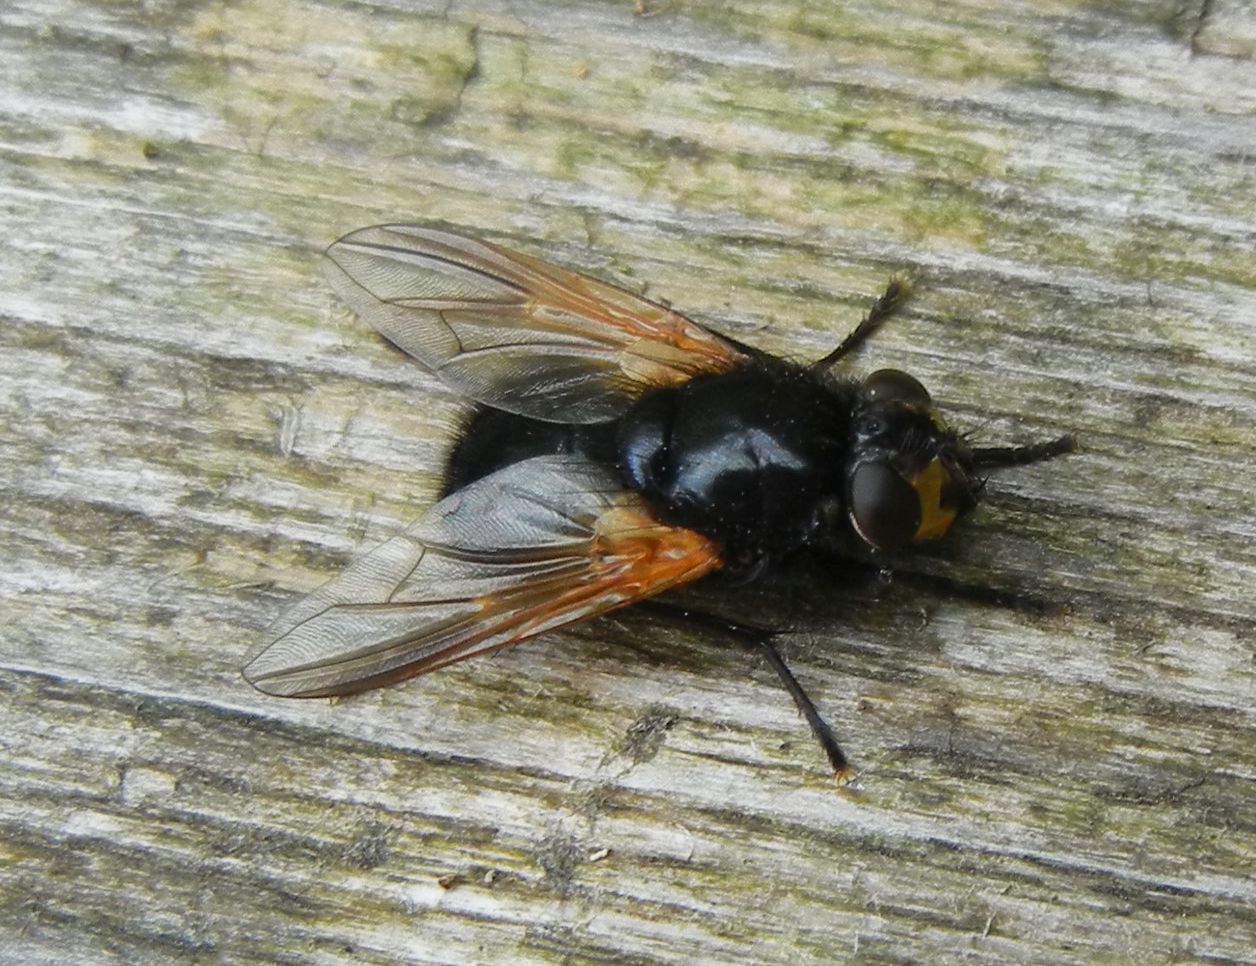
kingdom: Animalia
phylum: Arthropoda
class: Insecta
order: Diptera
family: Muscidae
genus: Mesembrina
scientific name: Mesembrina meridiana
